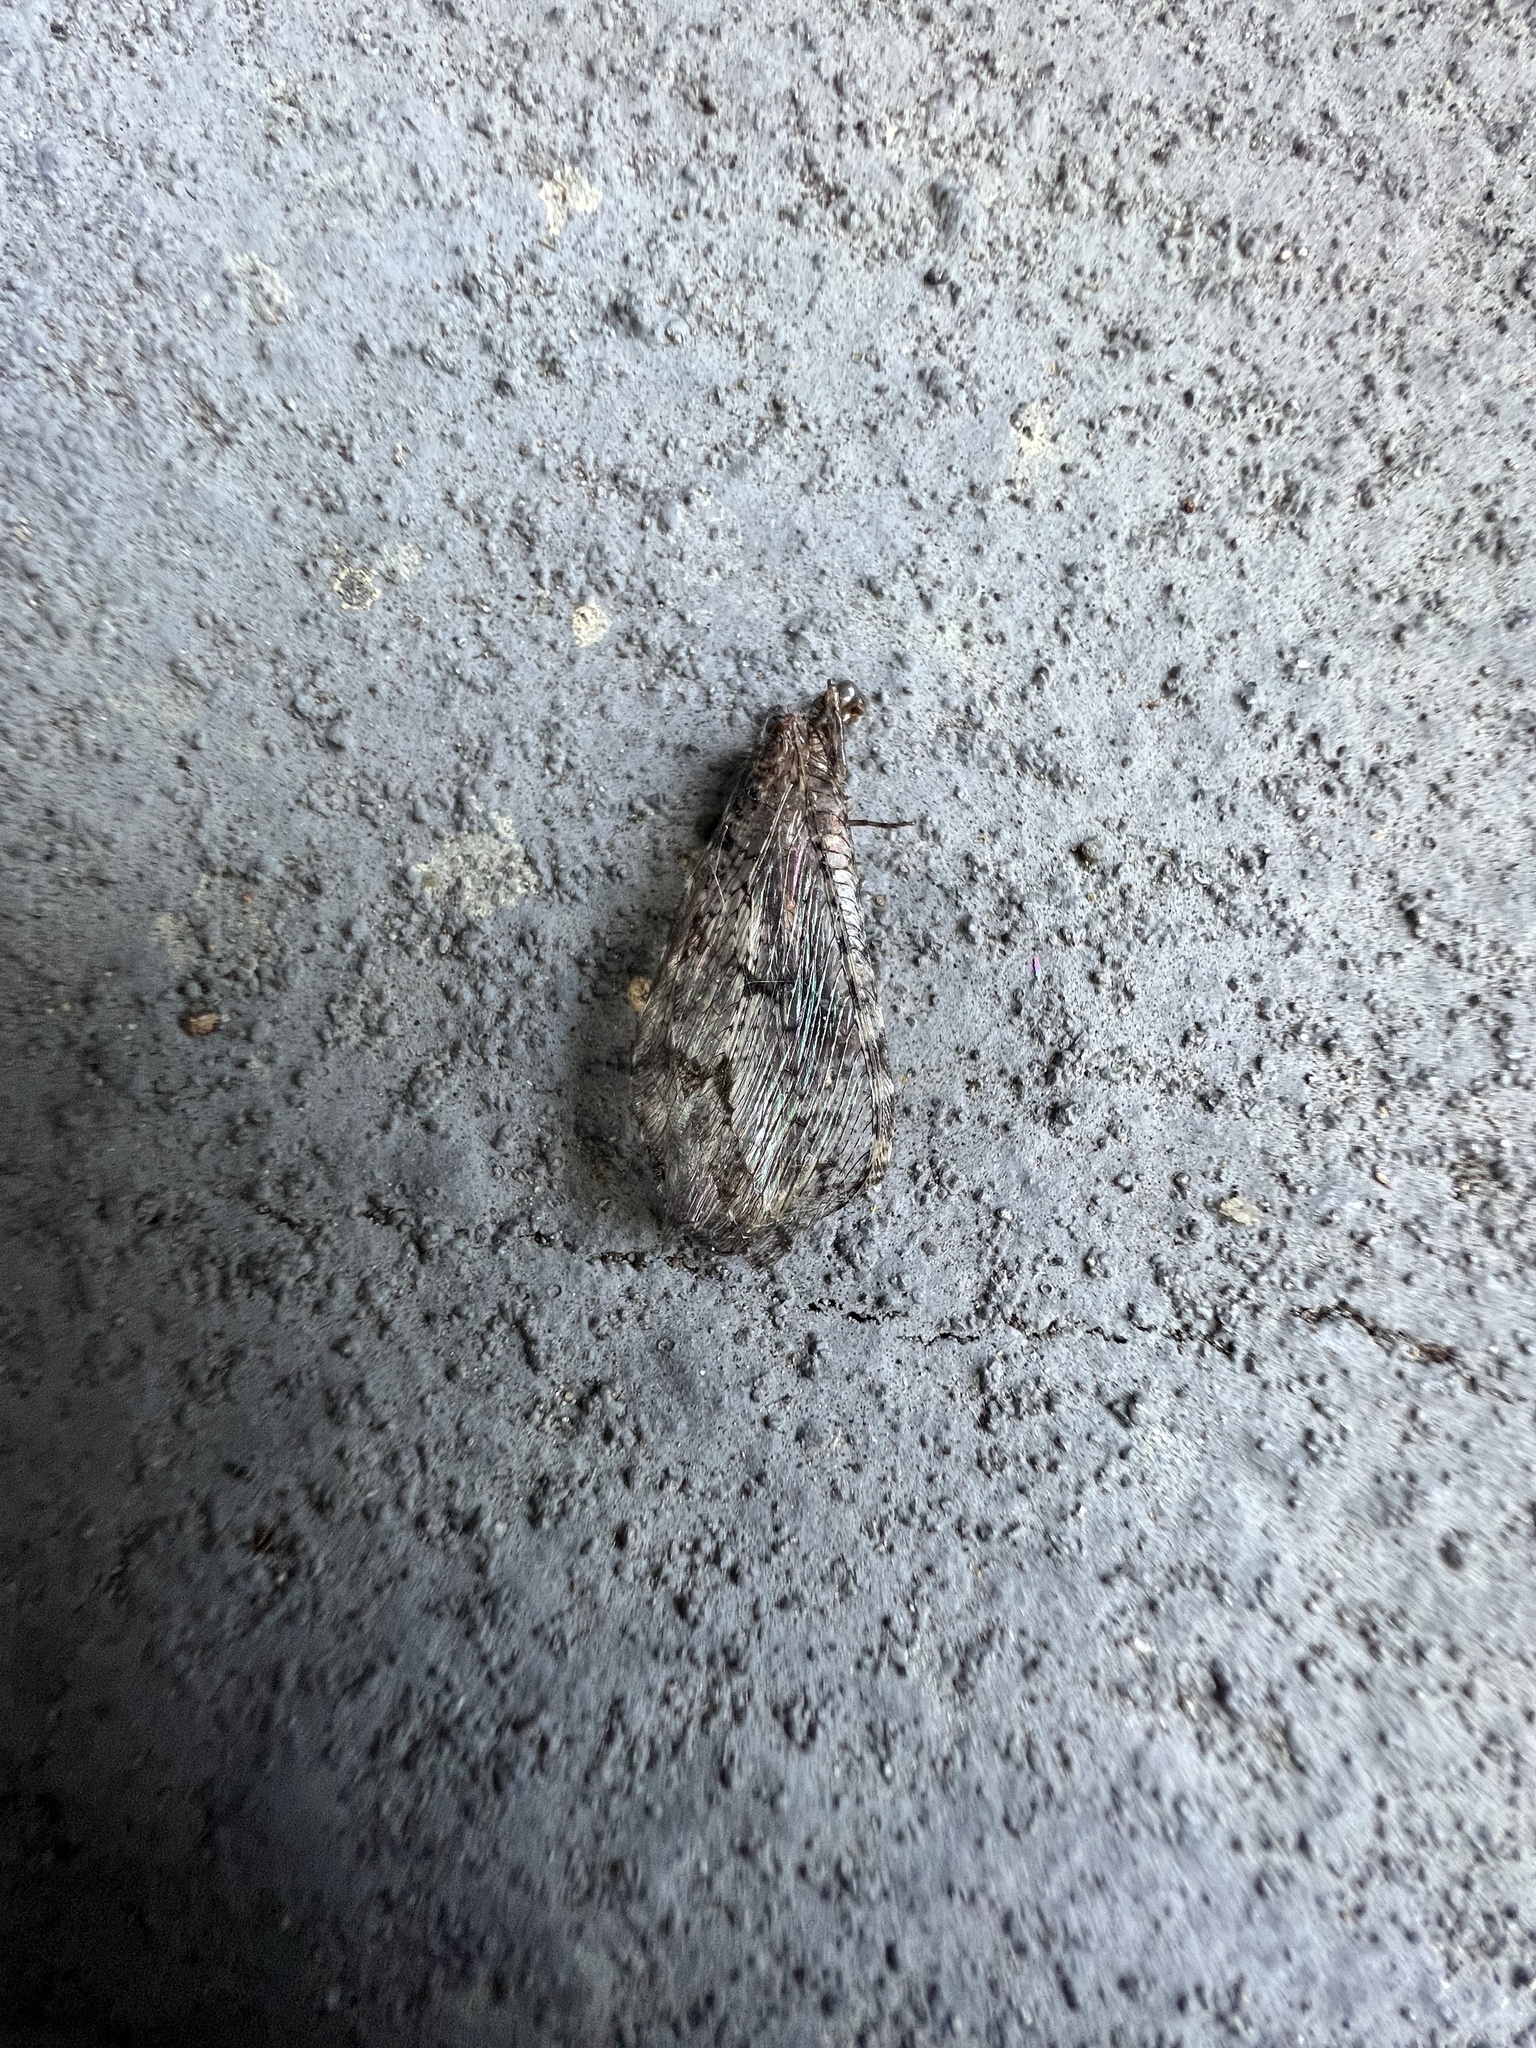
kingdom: Animalia
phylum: Arthropoda
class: Insecta
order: Neuroptera
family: Ithonidae
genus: Polystoechotes
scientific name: Polystoechotes punctata
